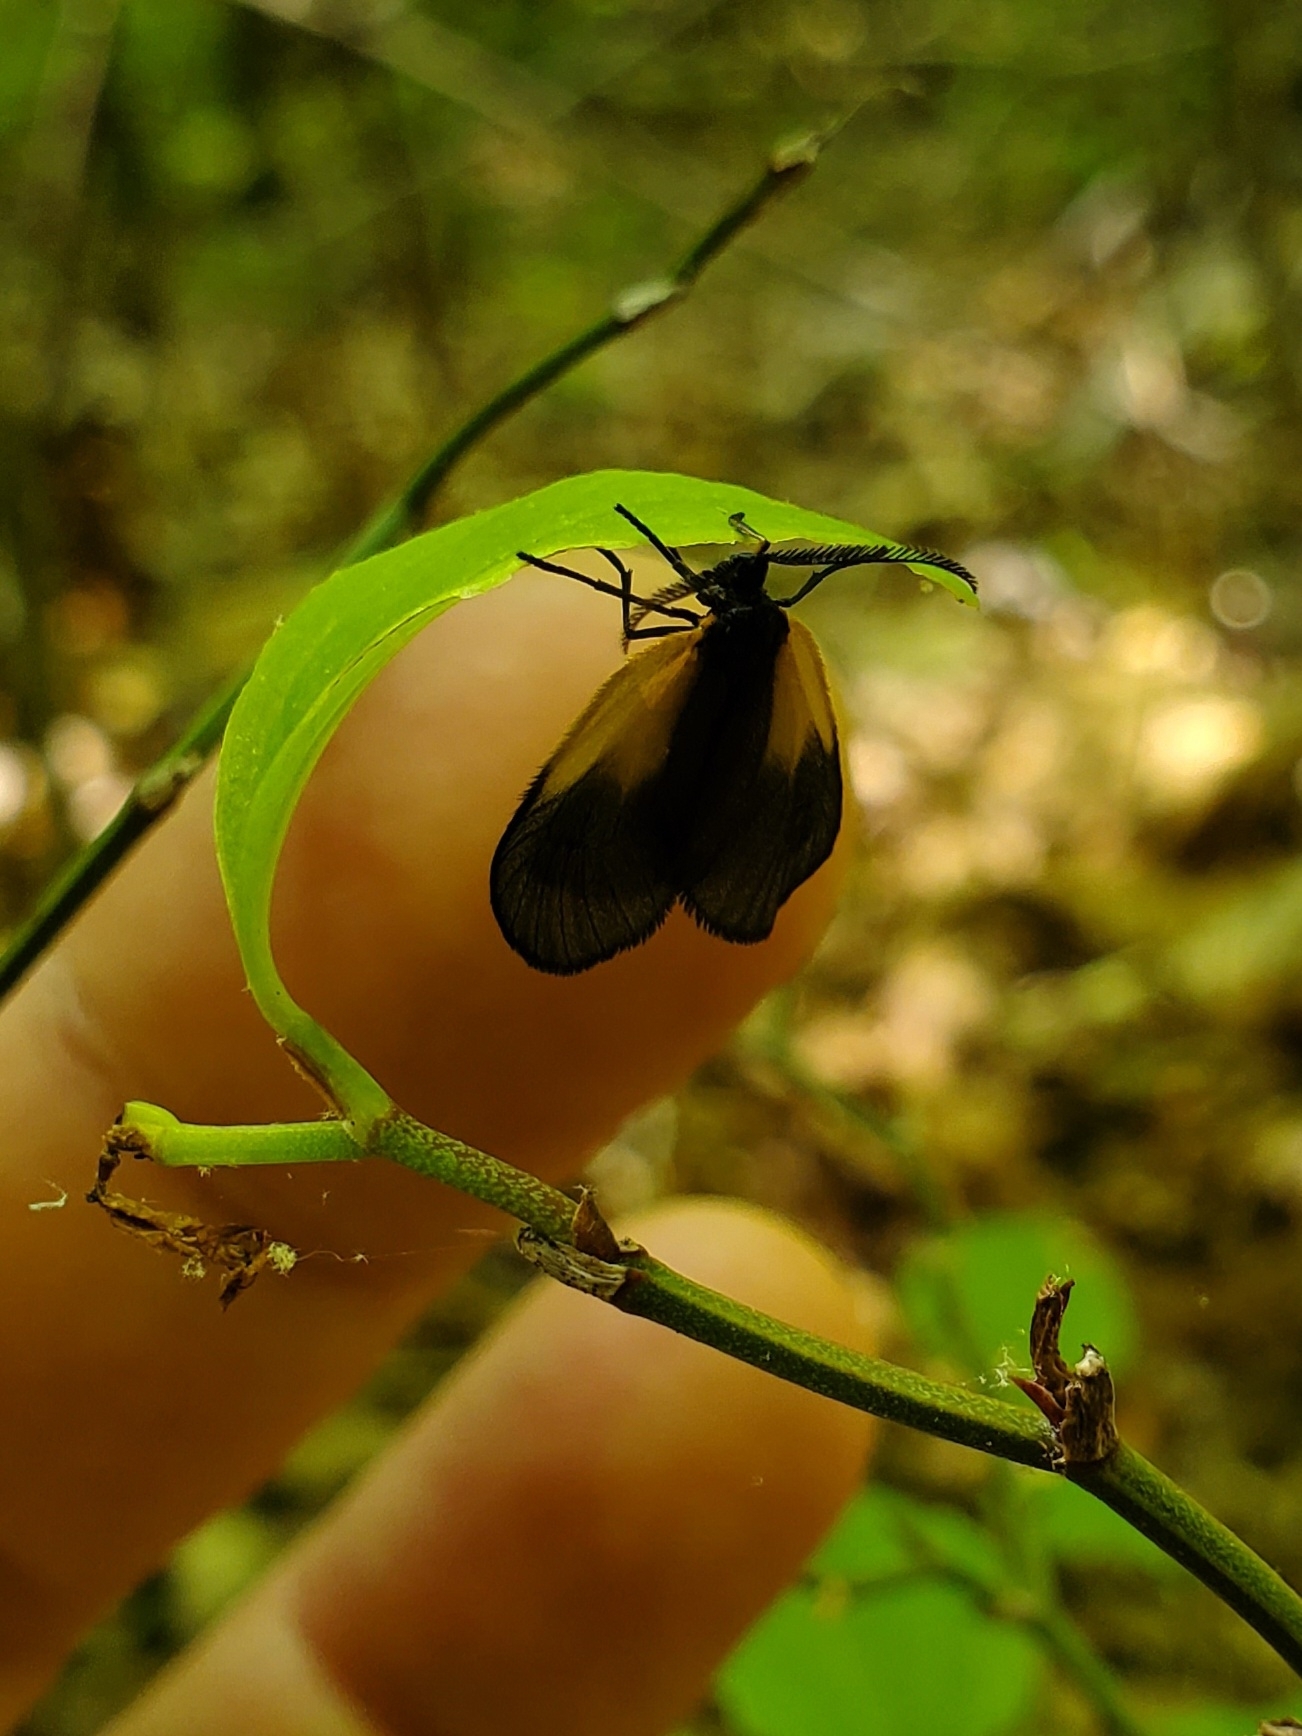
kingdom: Animalia
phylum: Arthropoda
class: Insecta
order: Lepidoptera
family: Zygaenidae
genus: Malthaca
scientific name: Malthaca dimidiata
